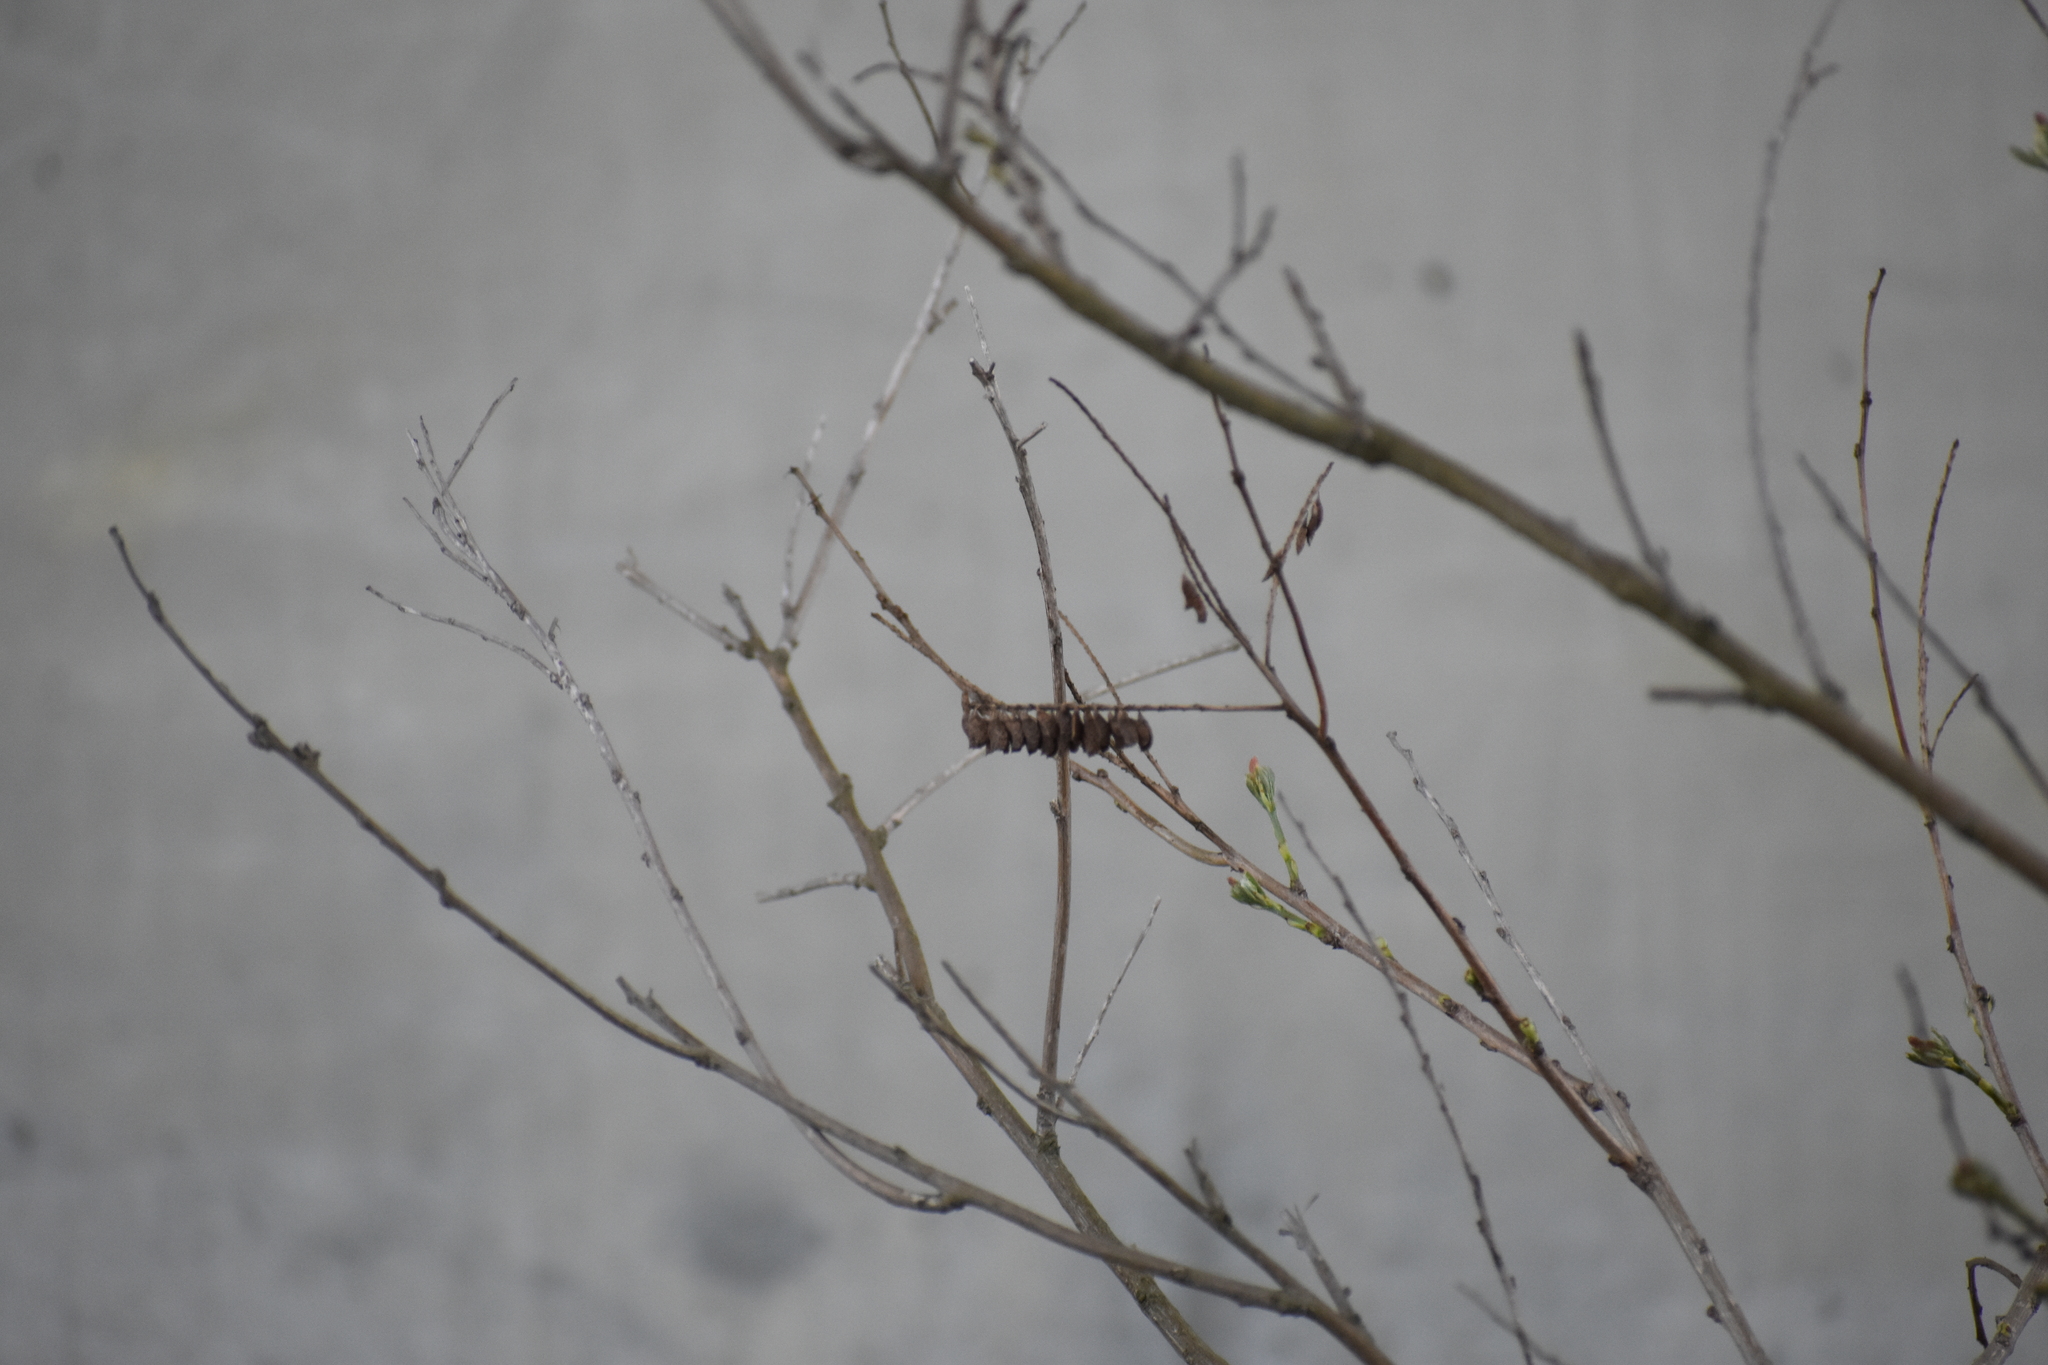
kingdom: Plantae
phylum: Tracheophyta
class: Magnoliopsida
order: Fabales
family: Fabaceae
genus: Amorpha
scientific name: Amorpha fruticosa
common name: False indigo
